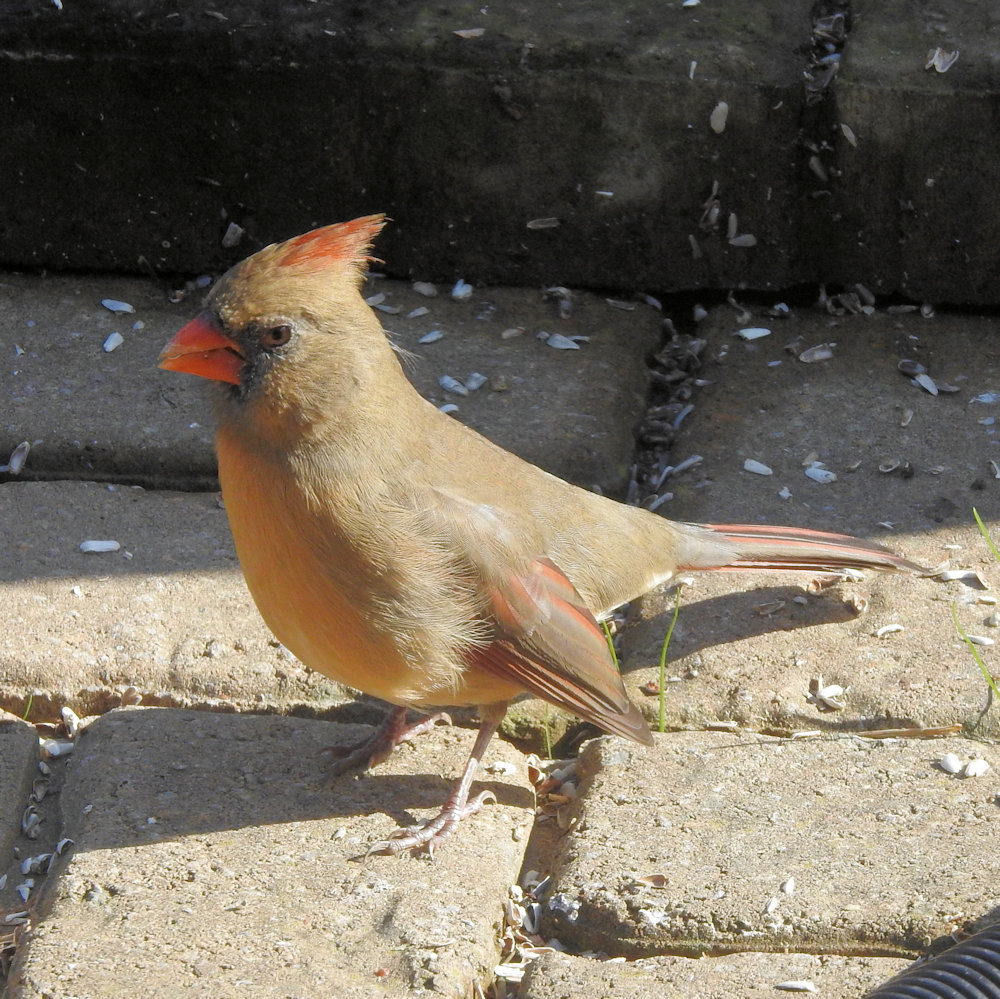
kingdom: Animalia
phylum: Chordata
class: Aves
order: Passeriformes
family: Cardinalidae
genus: Cardinalis
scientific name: Cardinalis cardinalis
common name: Northern cardinal
